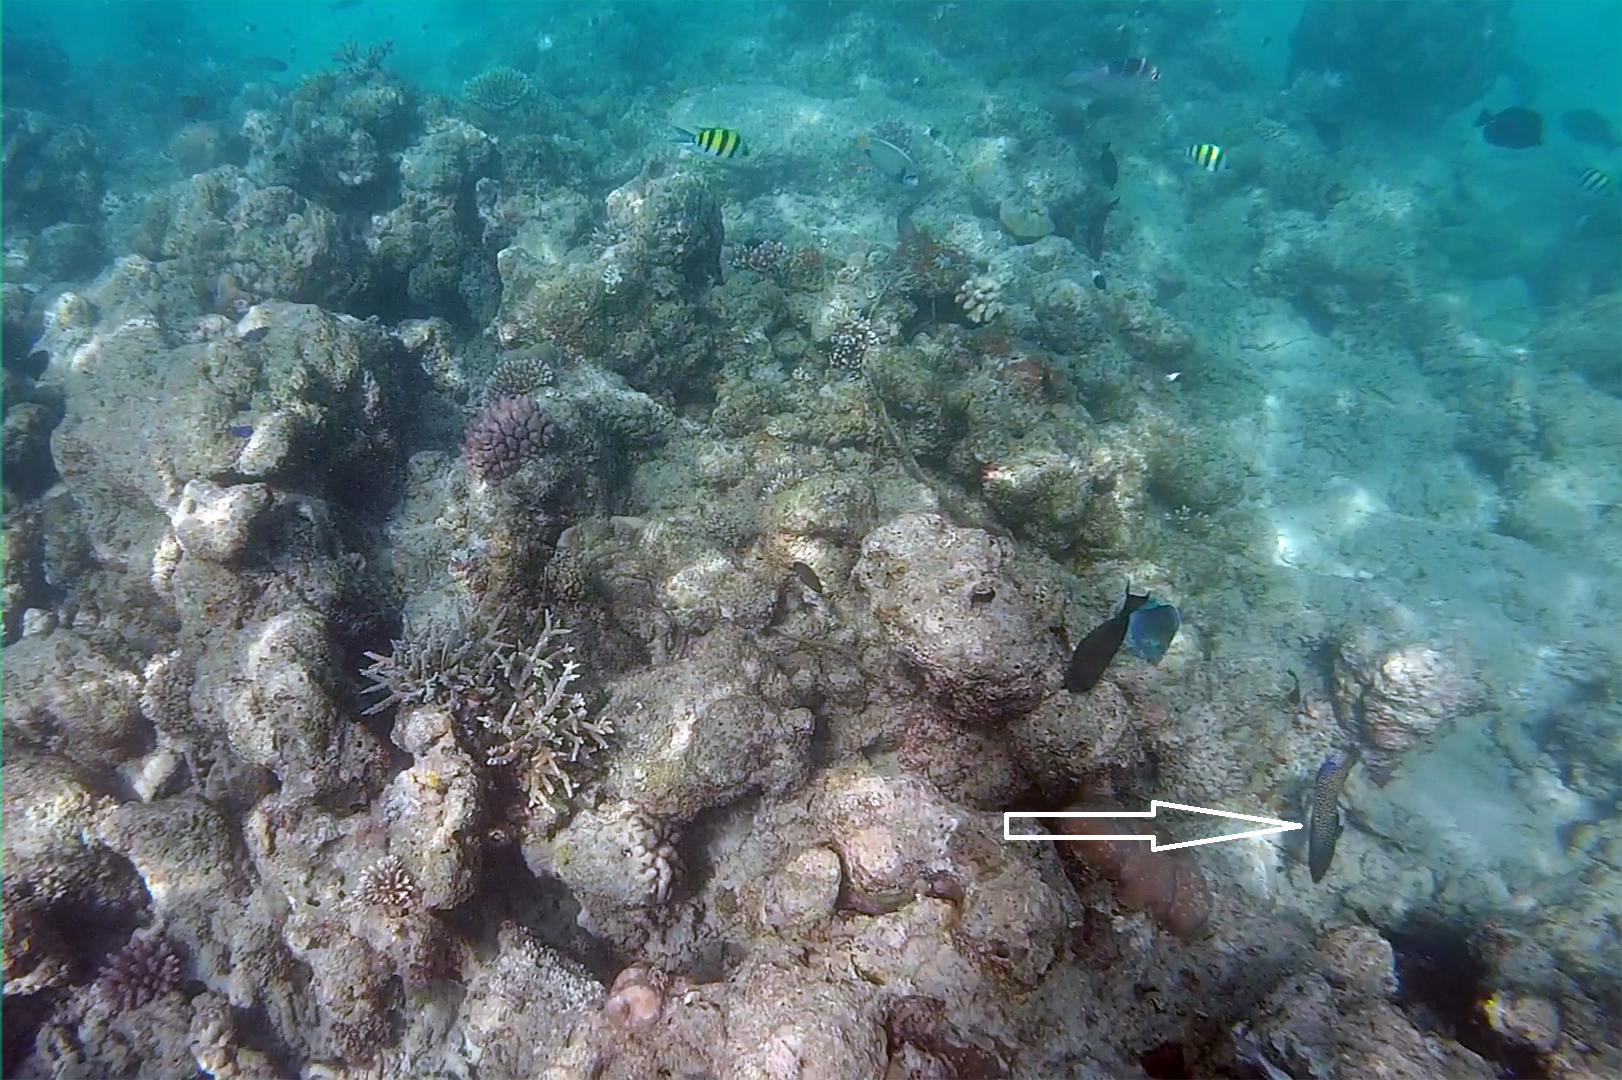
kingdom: Animalia
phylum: Chordata
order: Perciformes
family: Serranidae
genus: Cephalopholis
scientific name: Cephalopholis argus
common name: Peacock grouper
